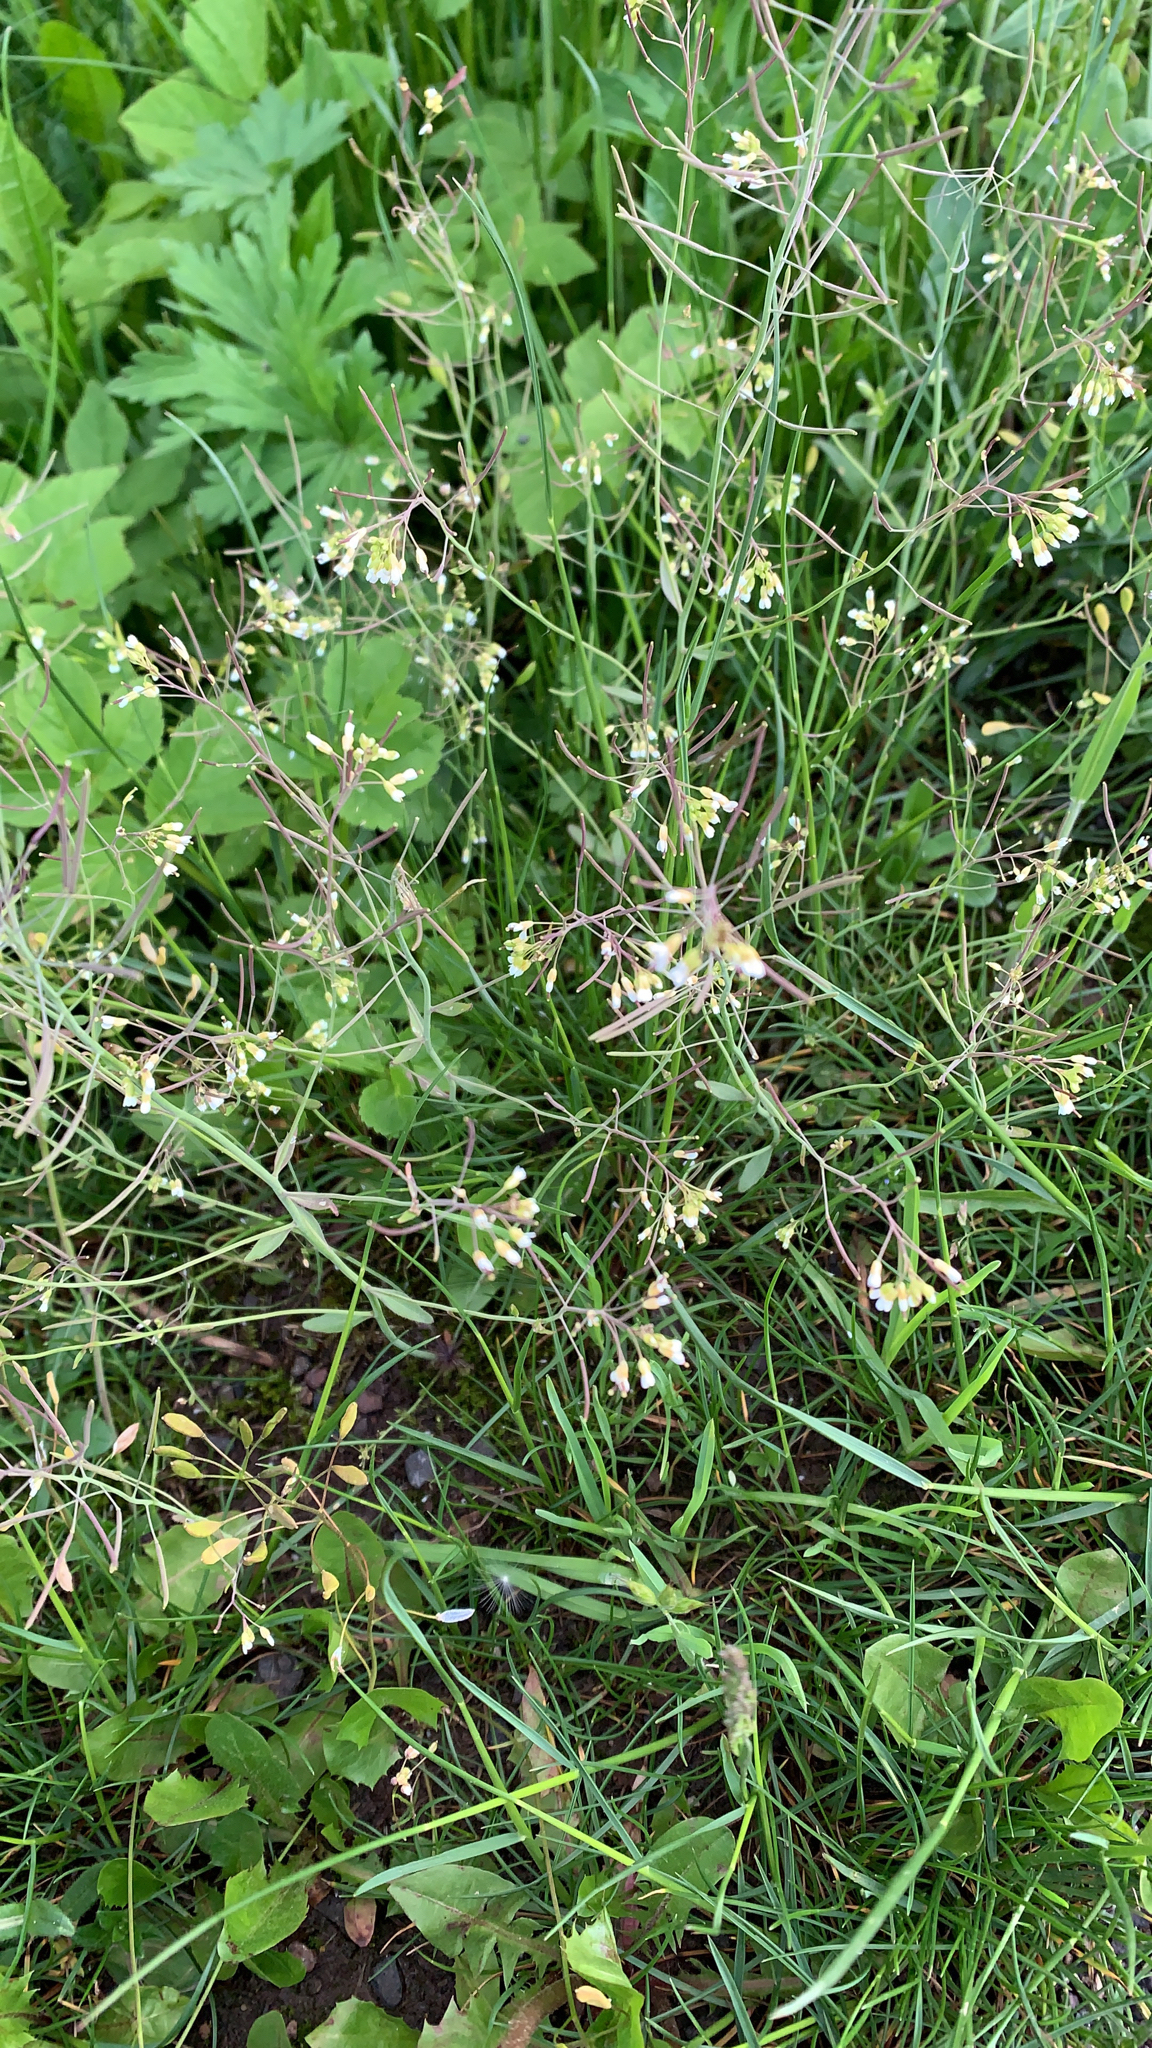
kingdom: Plantae
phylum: Tracheophyta
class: Magnoliopsida
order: Brassicales
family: Brassicaceae
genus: Arabidopsis
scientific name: Arabidopsis thaliana
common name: Thale cress
